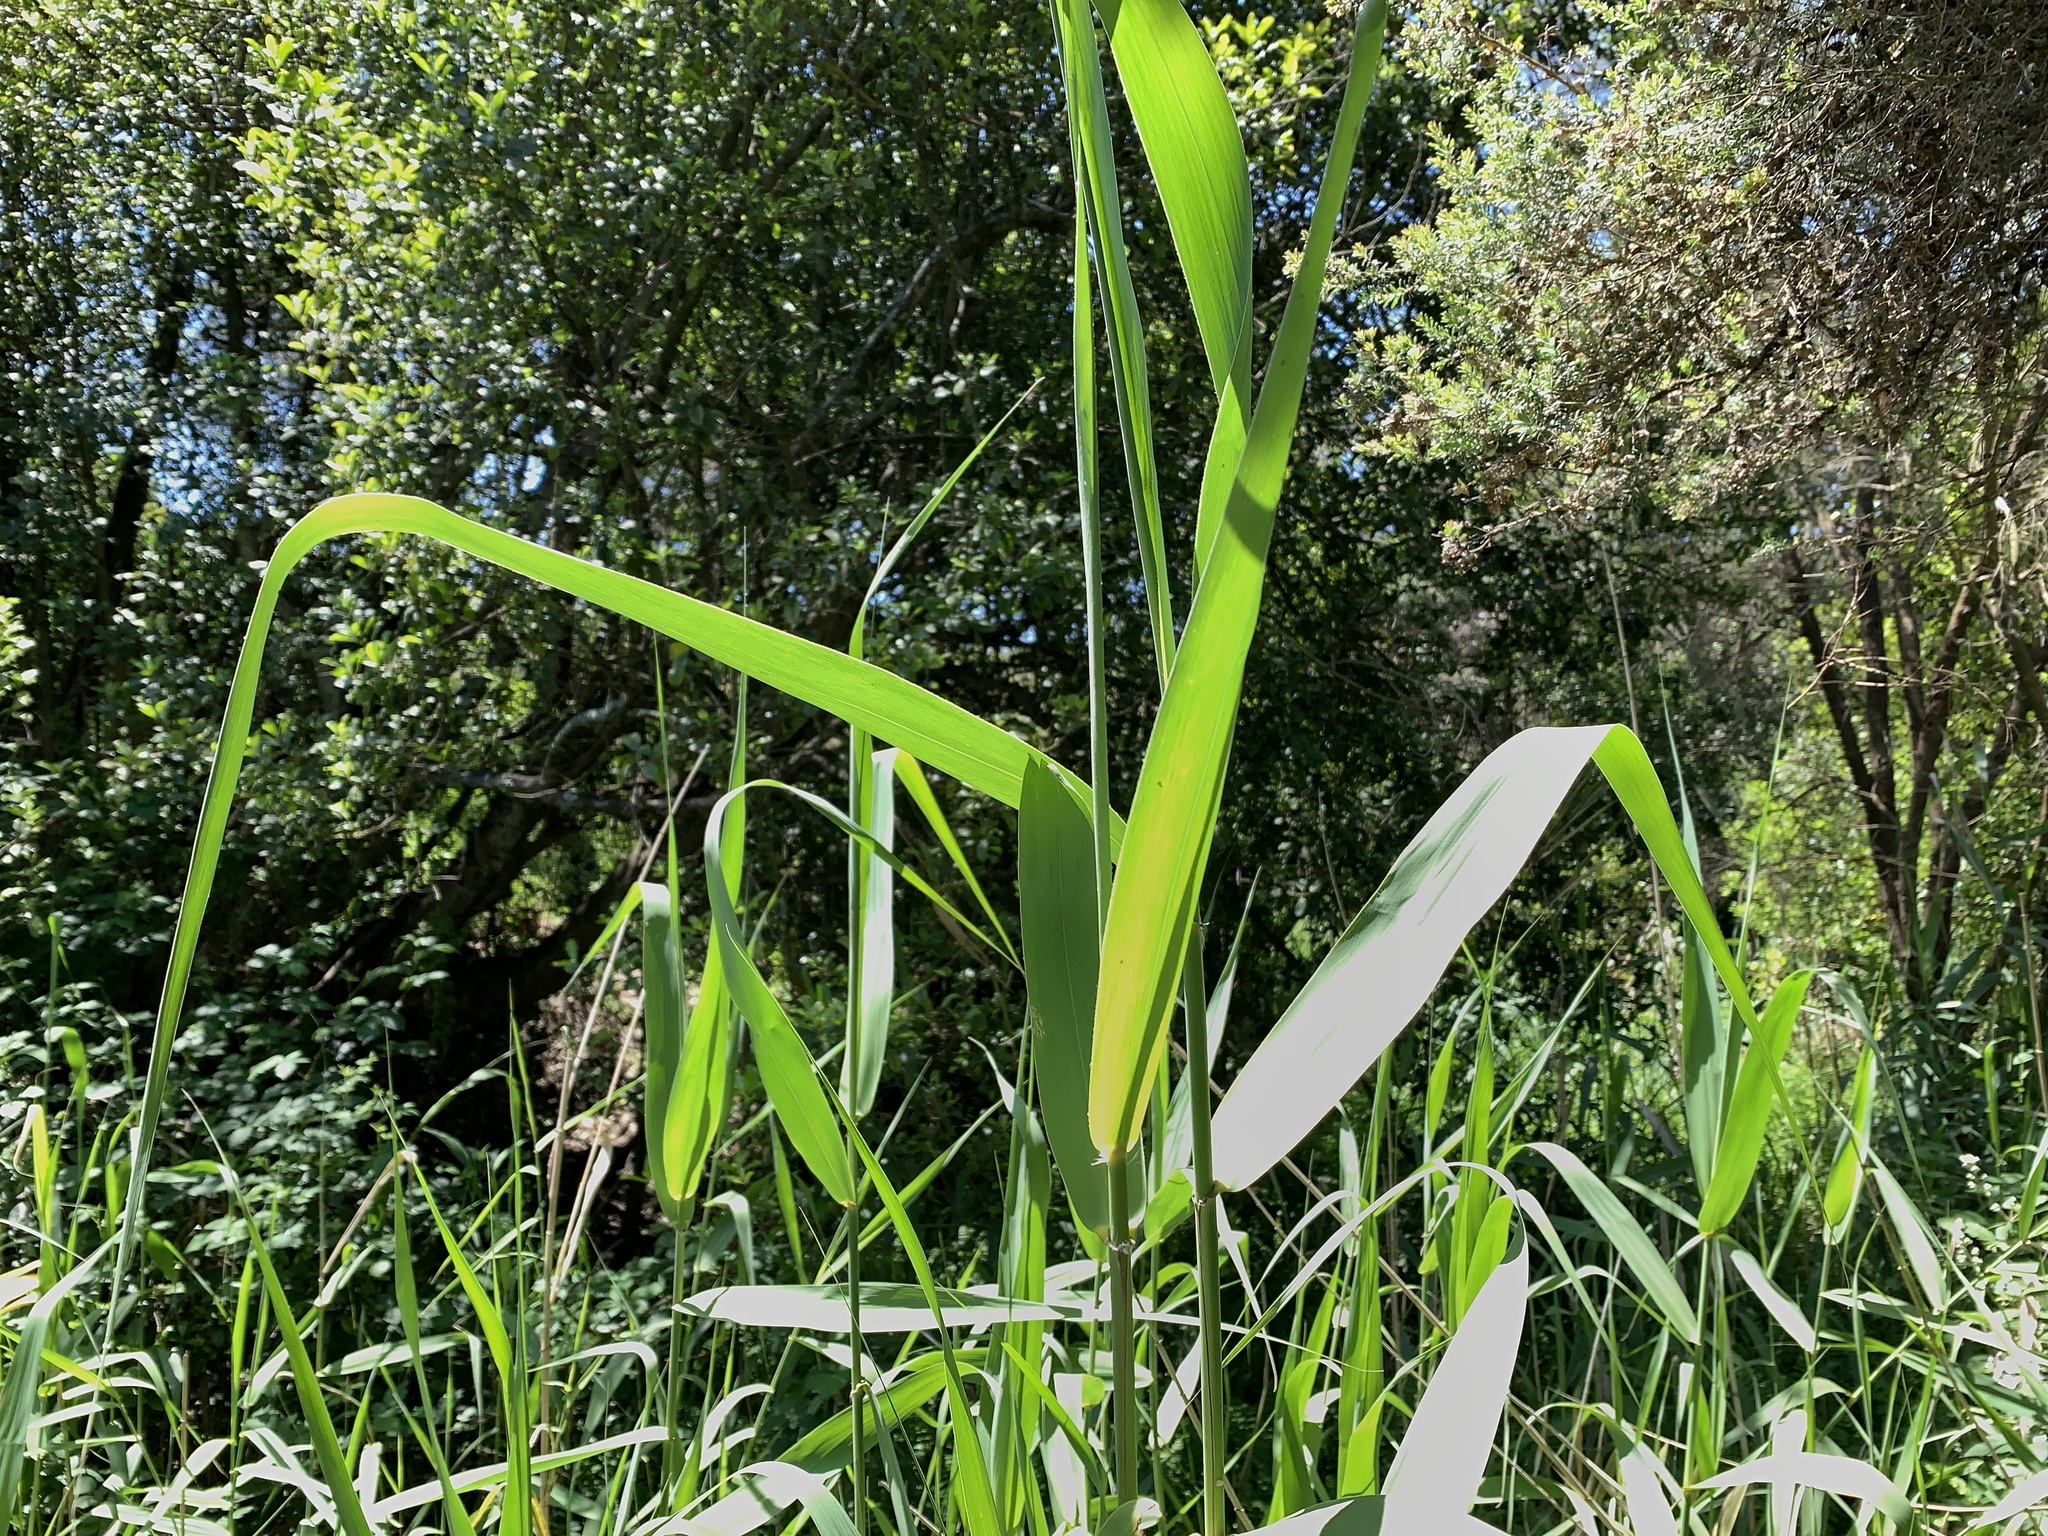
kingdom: Plantae
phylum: Tracheophyta
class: Liliopsida
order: Poales
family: Poaceae
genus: Phragmites
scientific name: Phragmites australis
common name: Common reed
